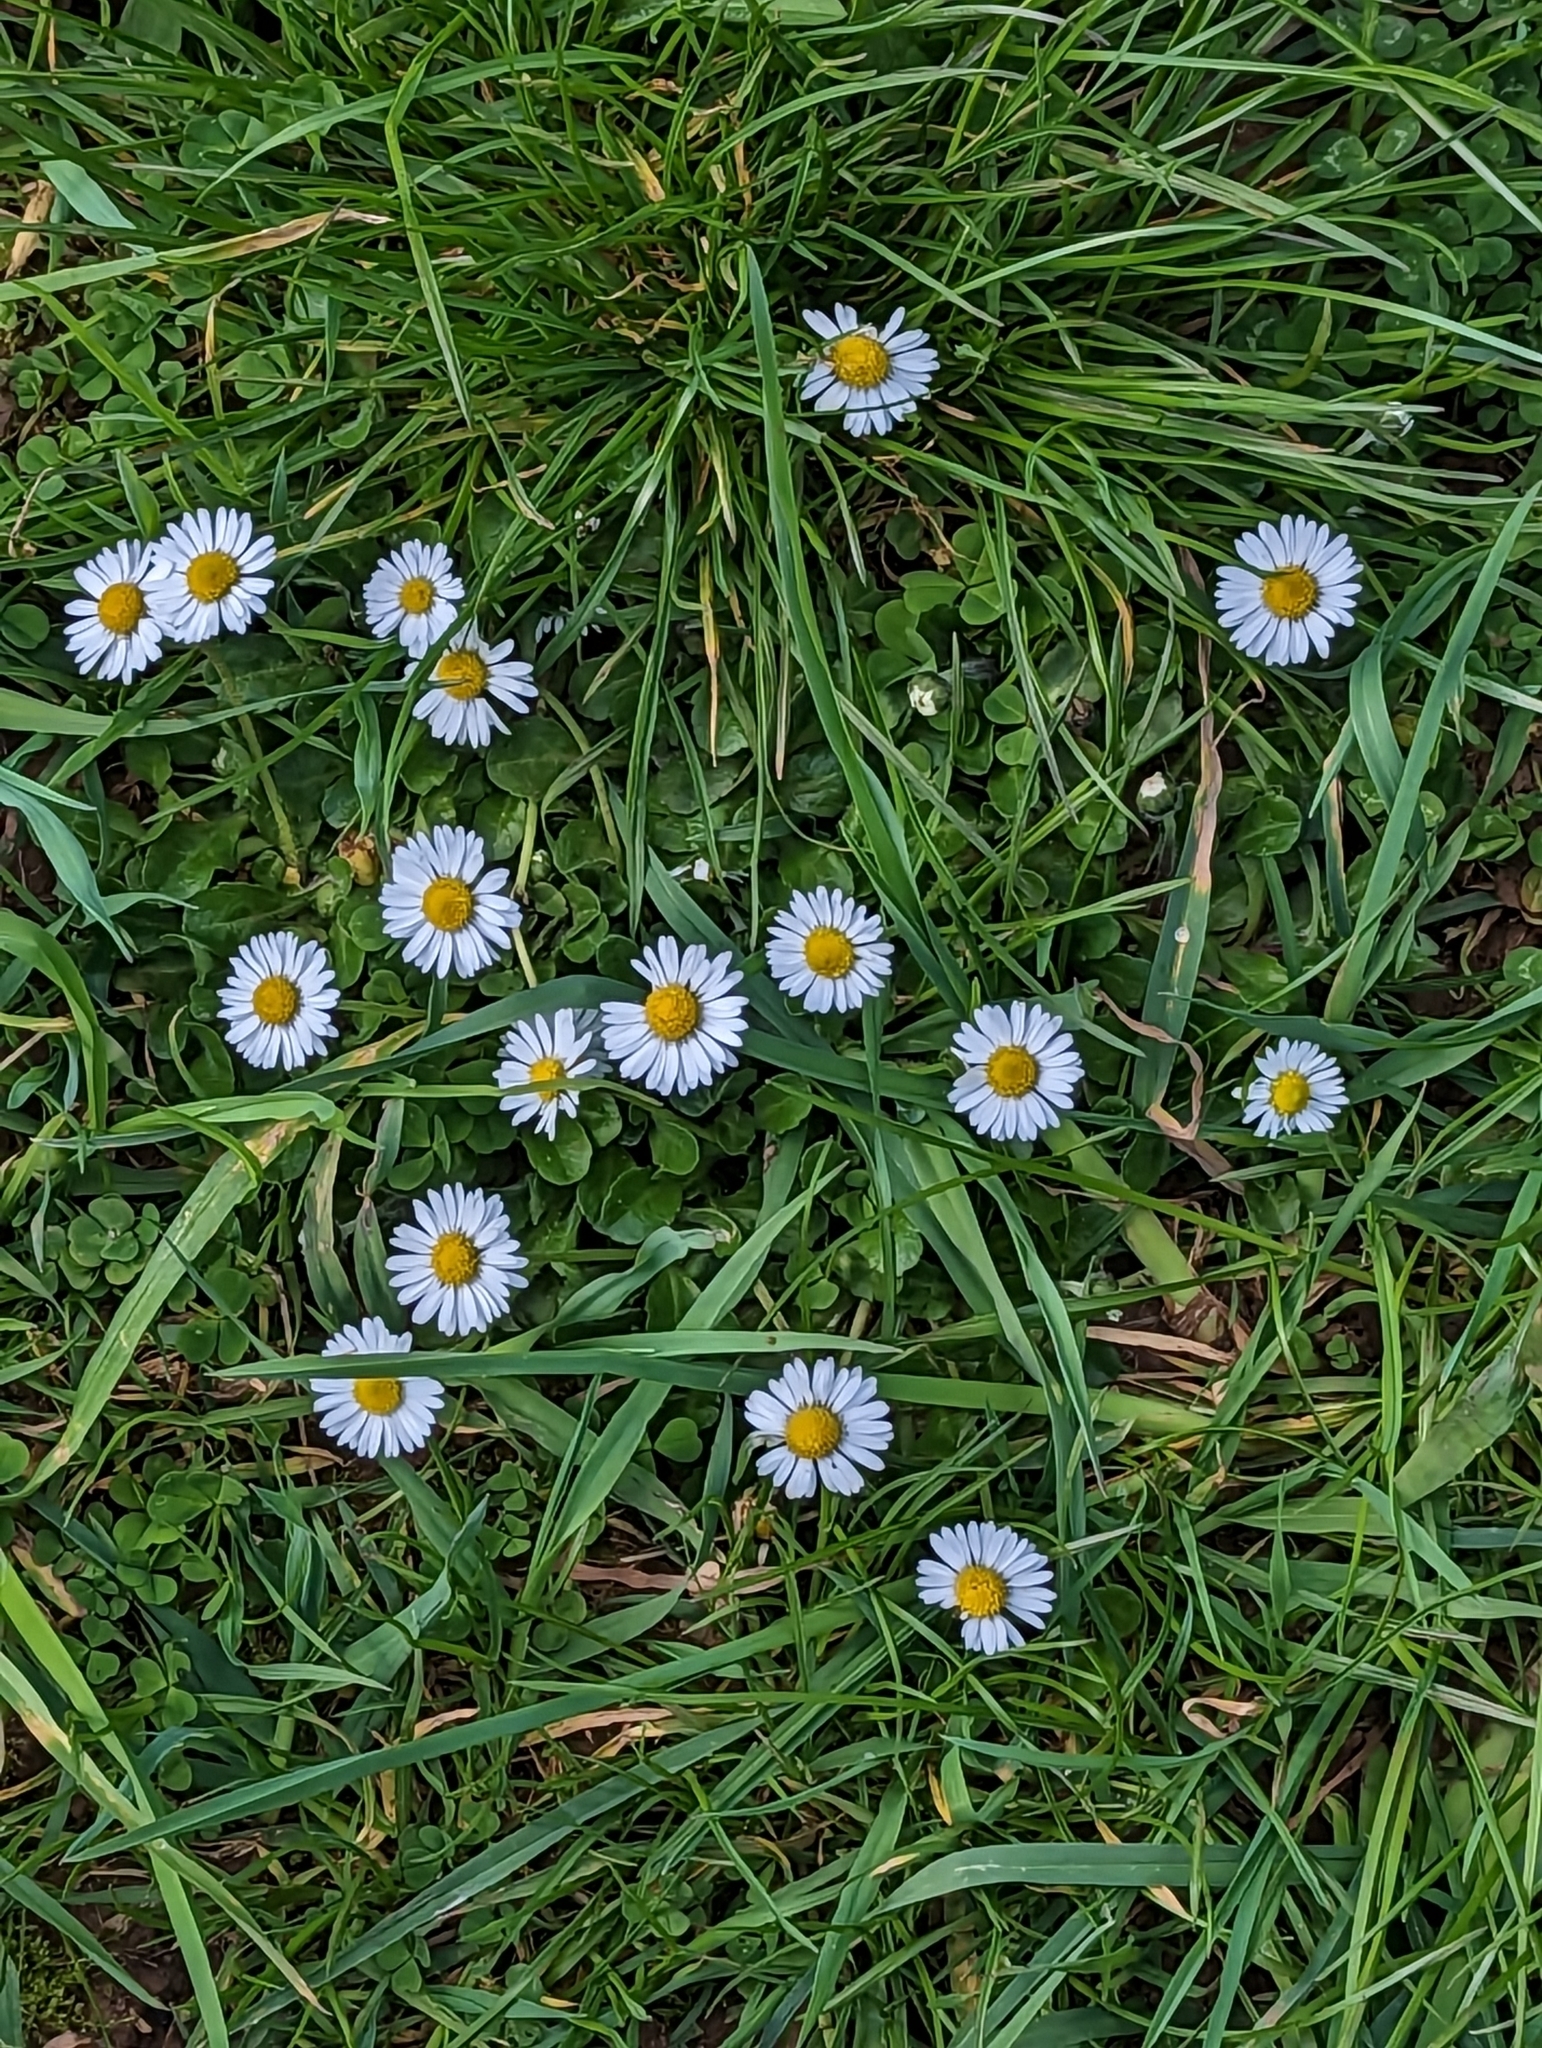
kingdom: Plantae
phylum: Tracheophyta
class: Magnoliopsida
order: Asterales
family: Asteraceae
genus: Bellis
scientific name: Bellis perennis
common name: Lawndaisy
